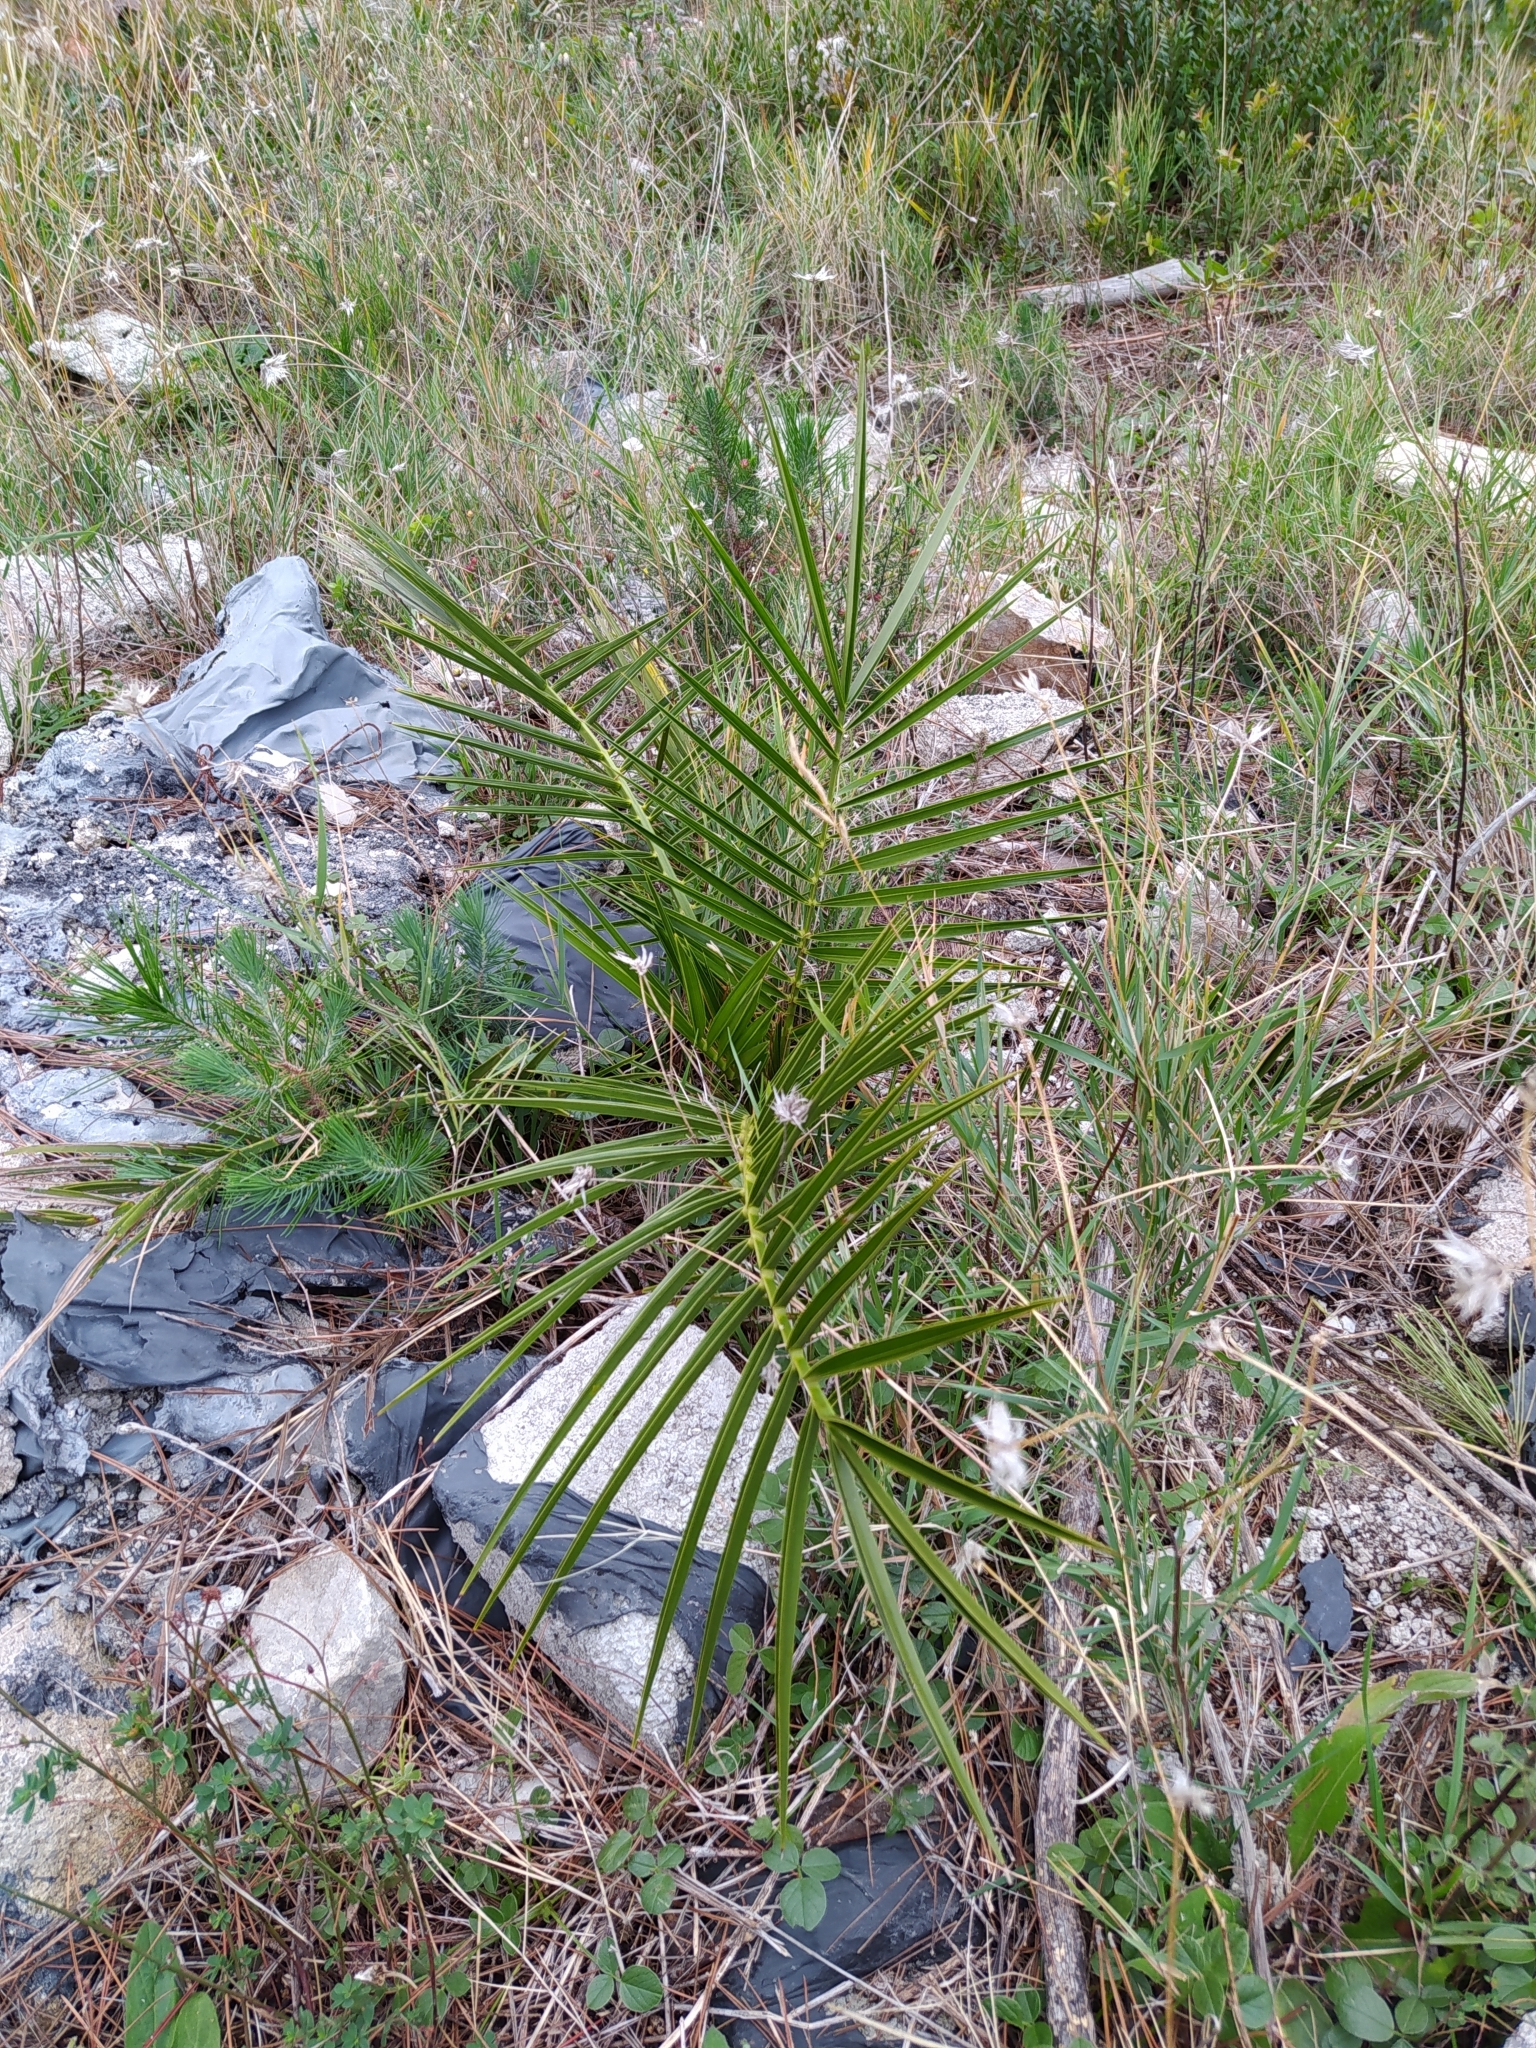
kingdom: Plantae
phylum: Tracheophyta
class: Liliopsida
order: Arecales
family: Arecaceae
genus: Phoenix
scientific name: Phoenix canariensis
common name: Canary island date palm
